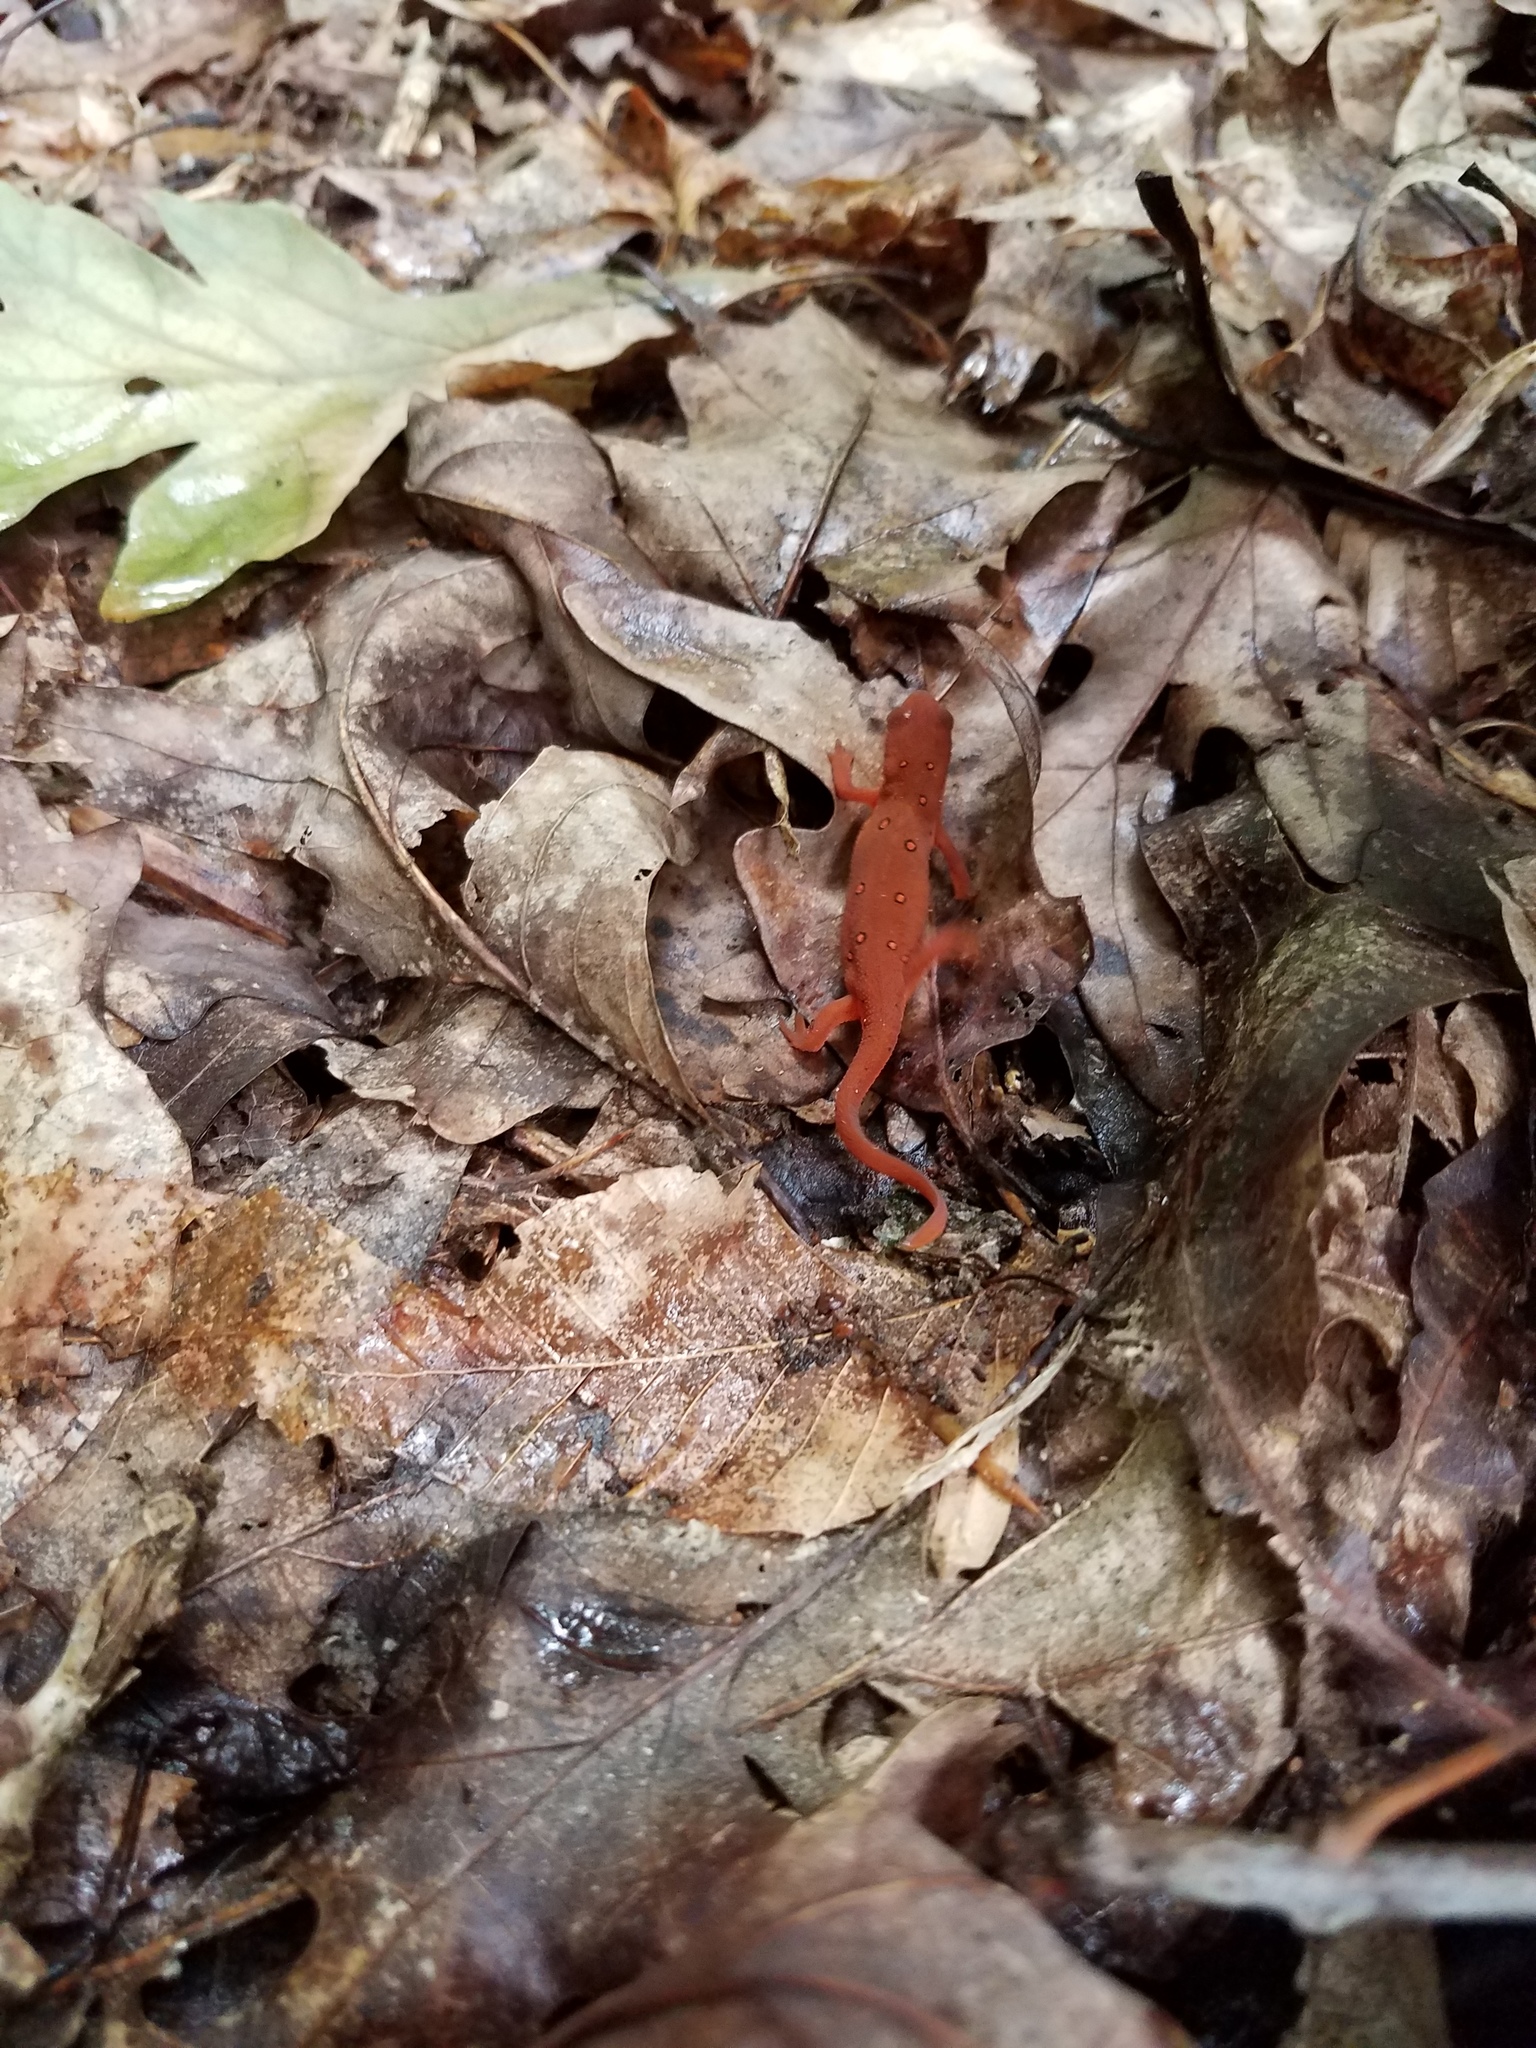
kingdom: Animalia
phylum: Chordata
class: Amphibia
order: Caudata
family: Salamandridae
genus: Notophthalmus
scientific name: Notophthalmus viridescens
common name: Eastern newt
